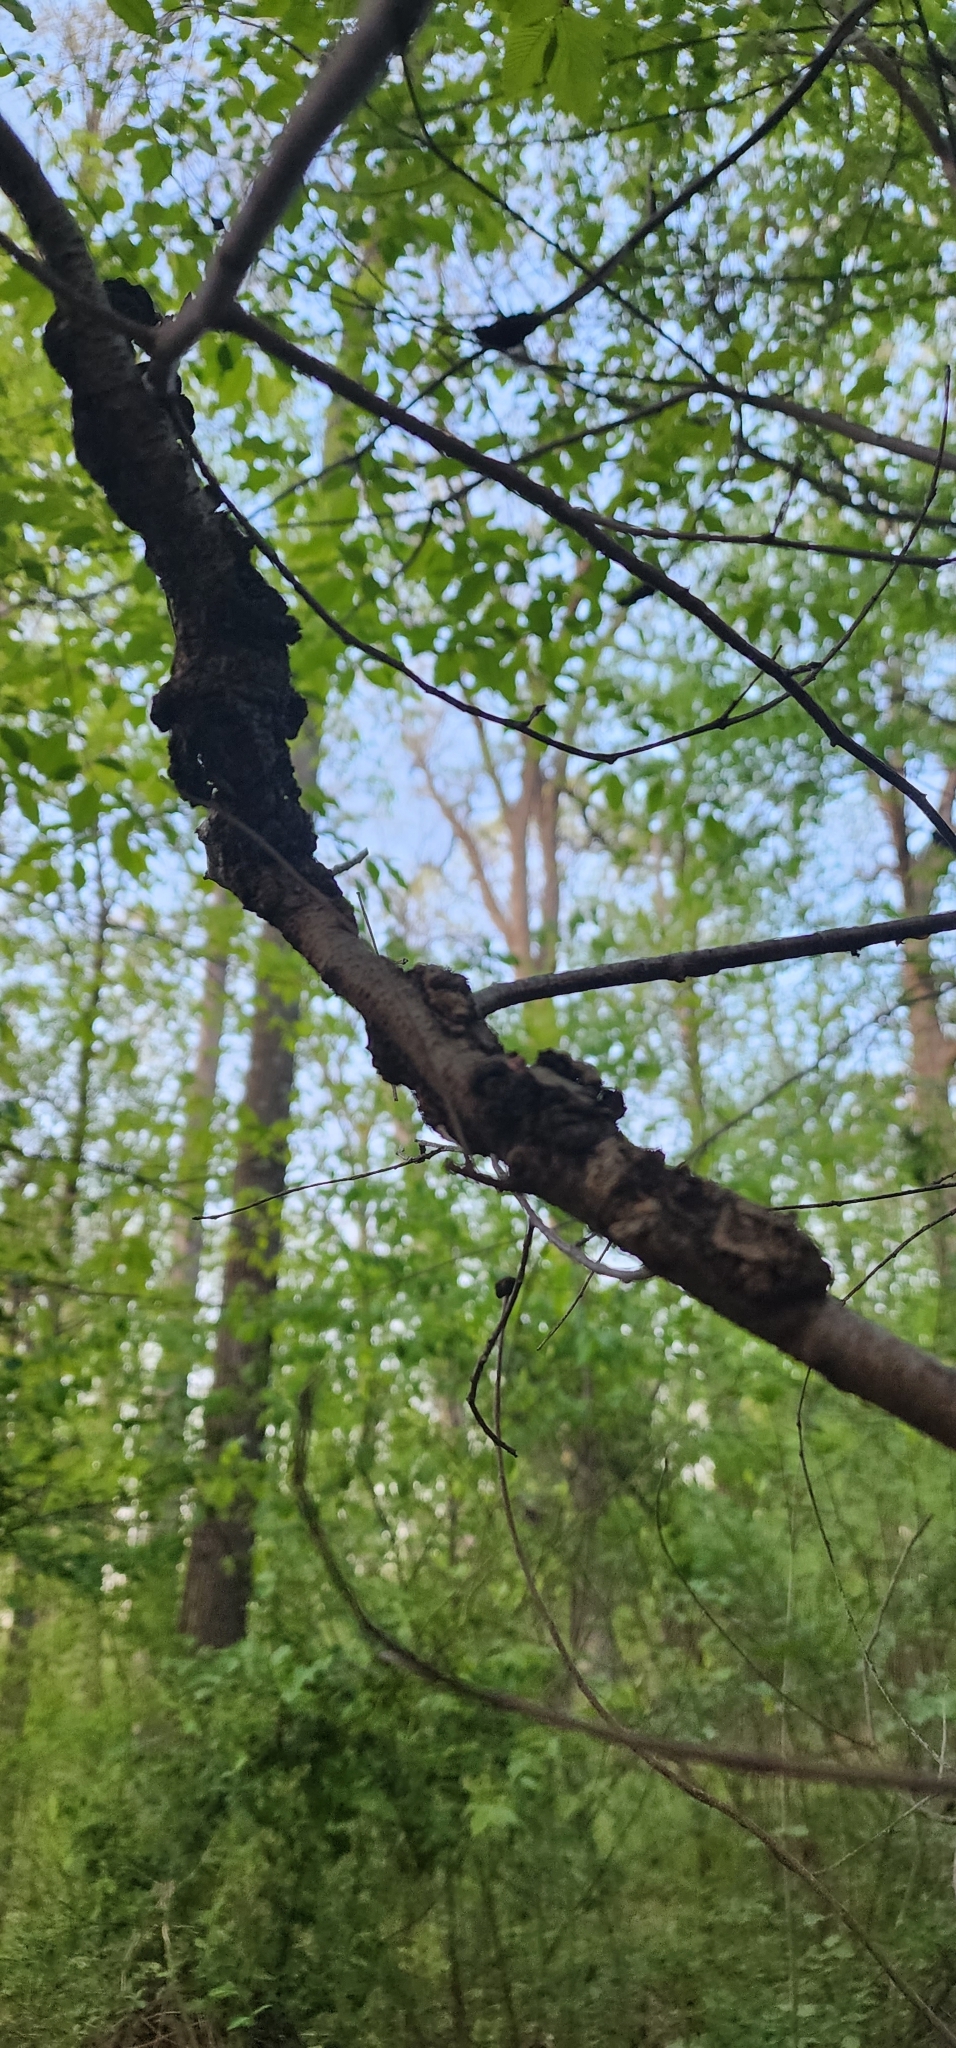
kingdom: Fungi
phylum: Ascomycota
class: Dothideomycetes
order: Venturiales
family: Venturiaceae
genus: Apiosporina
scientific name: Apiosporina morbosa
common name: Black knot
